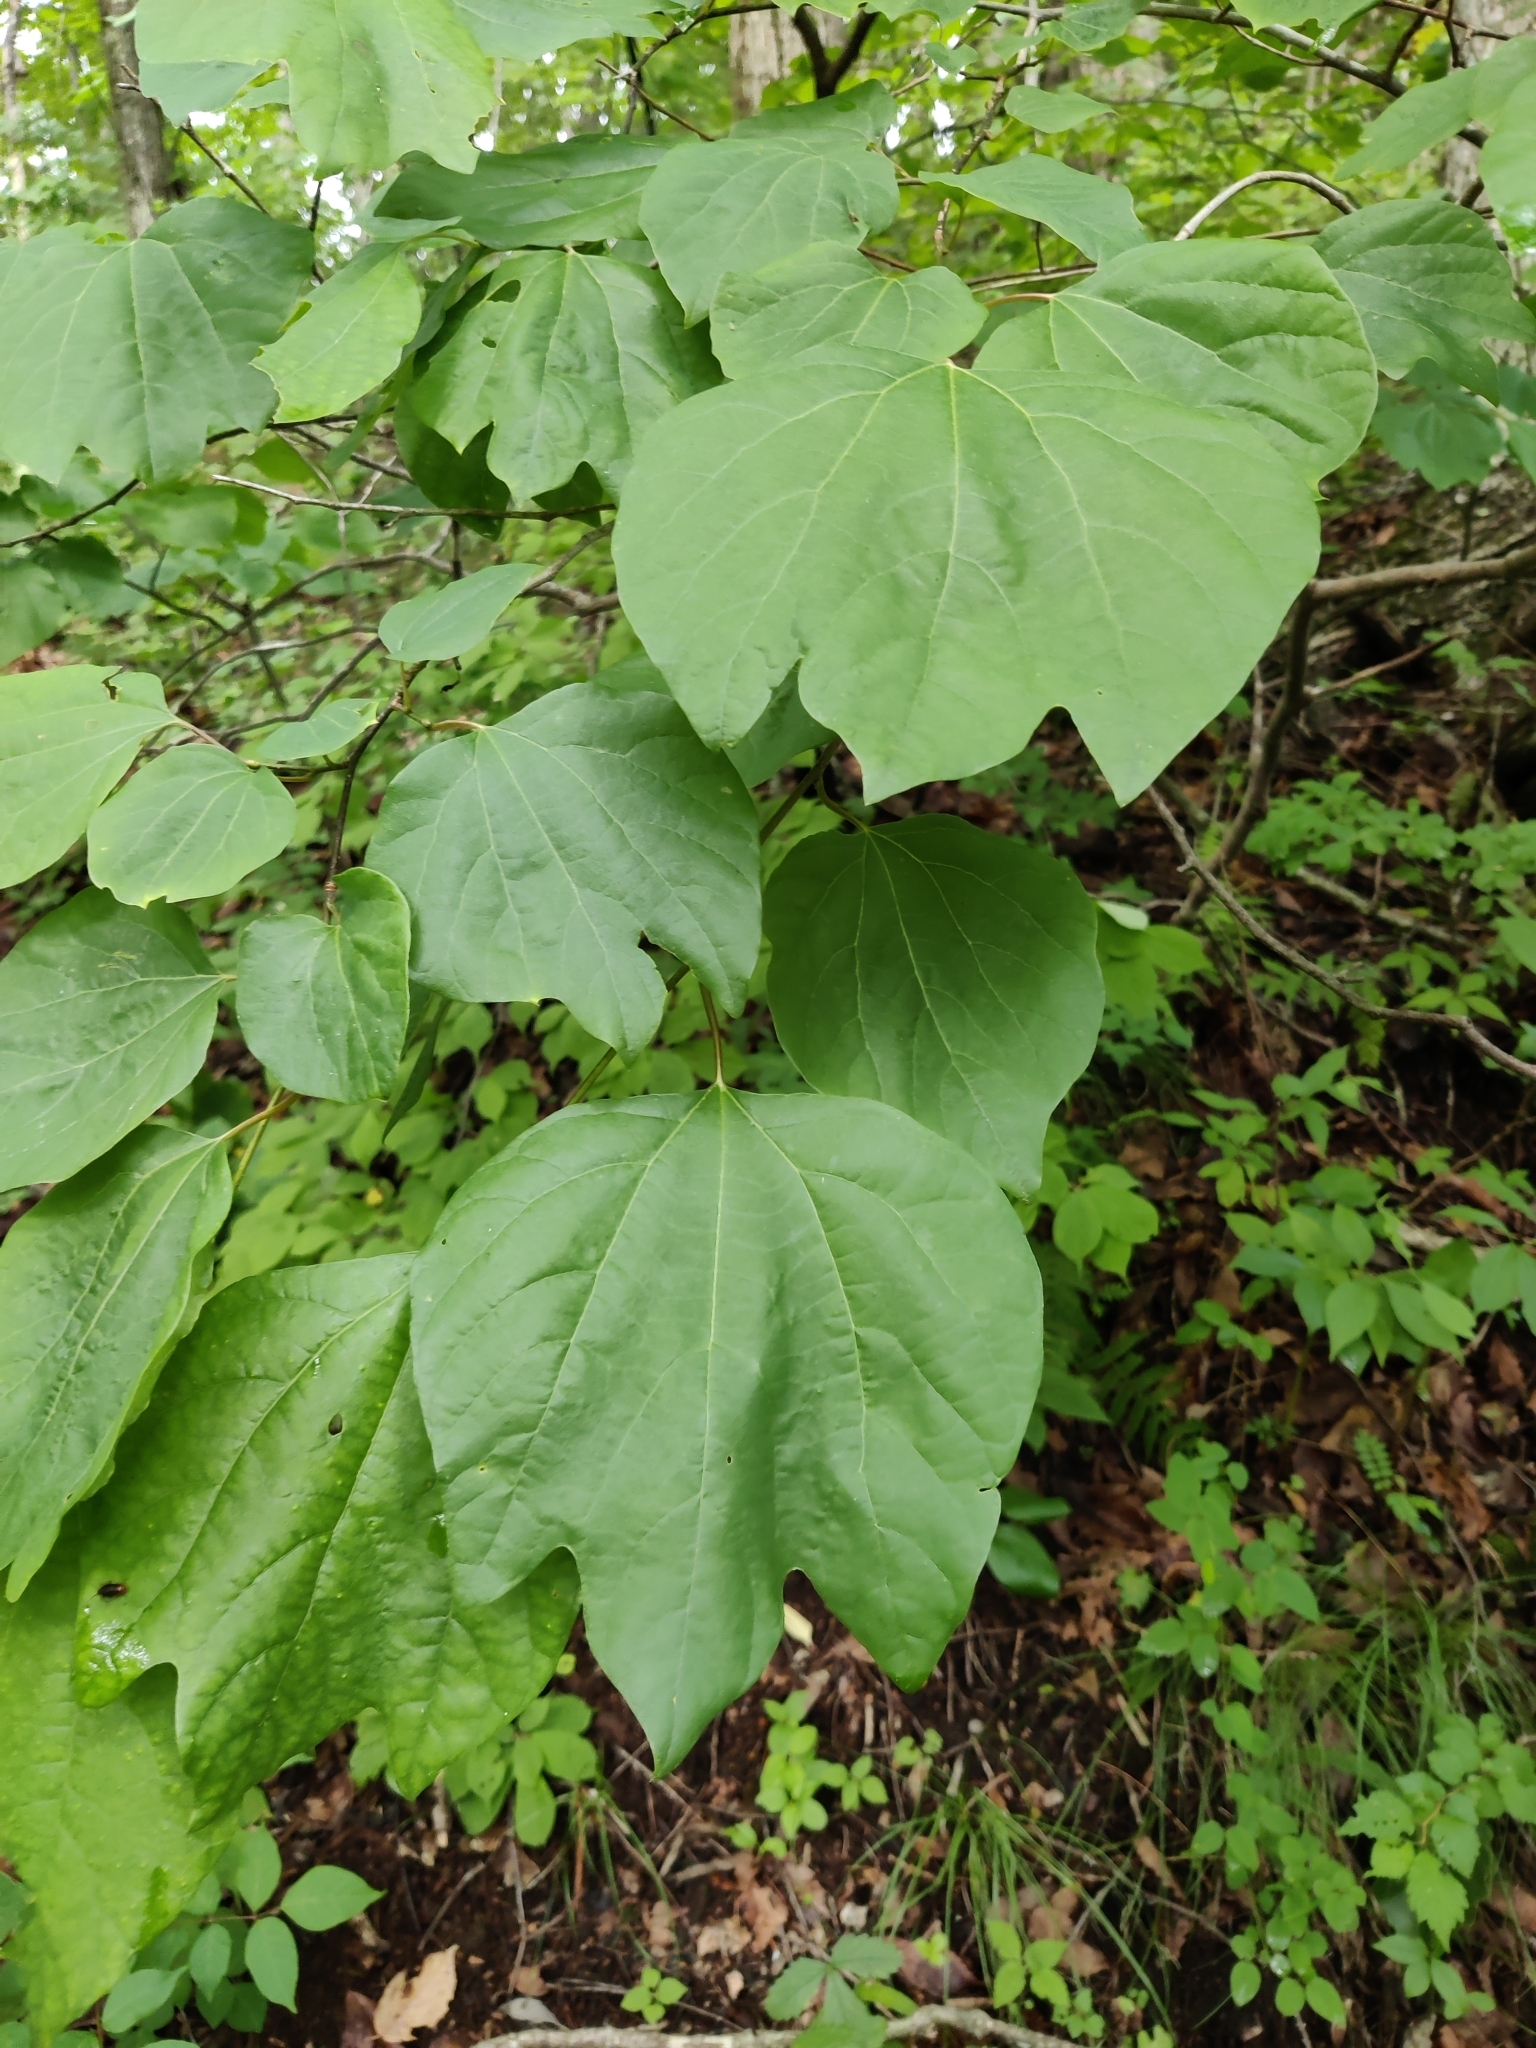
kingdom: Plantae
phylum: Tracheophyta
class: Magnoliopsida
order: Laurales
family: Lauraceae
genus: Lindera
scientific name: Lindera obtusiloba
